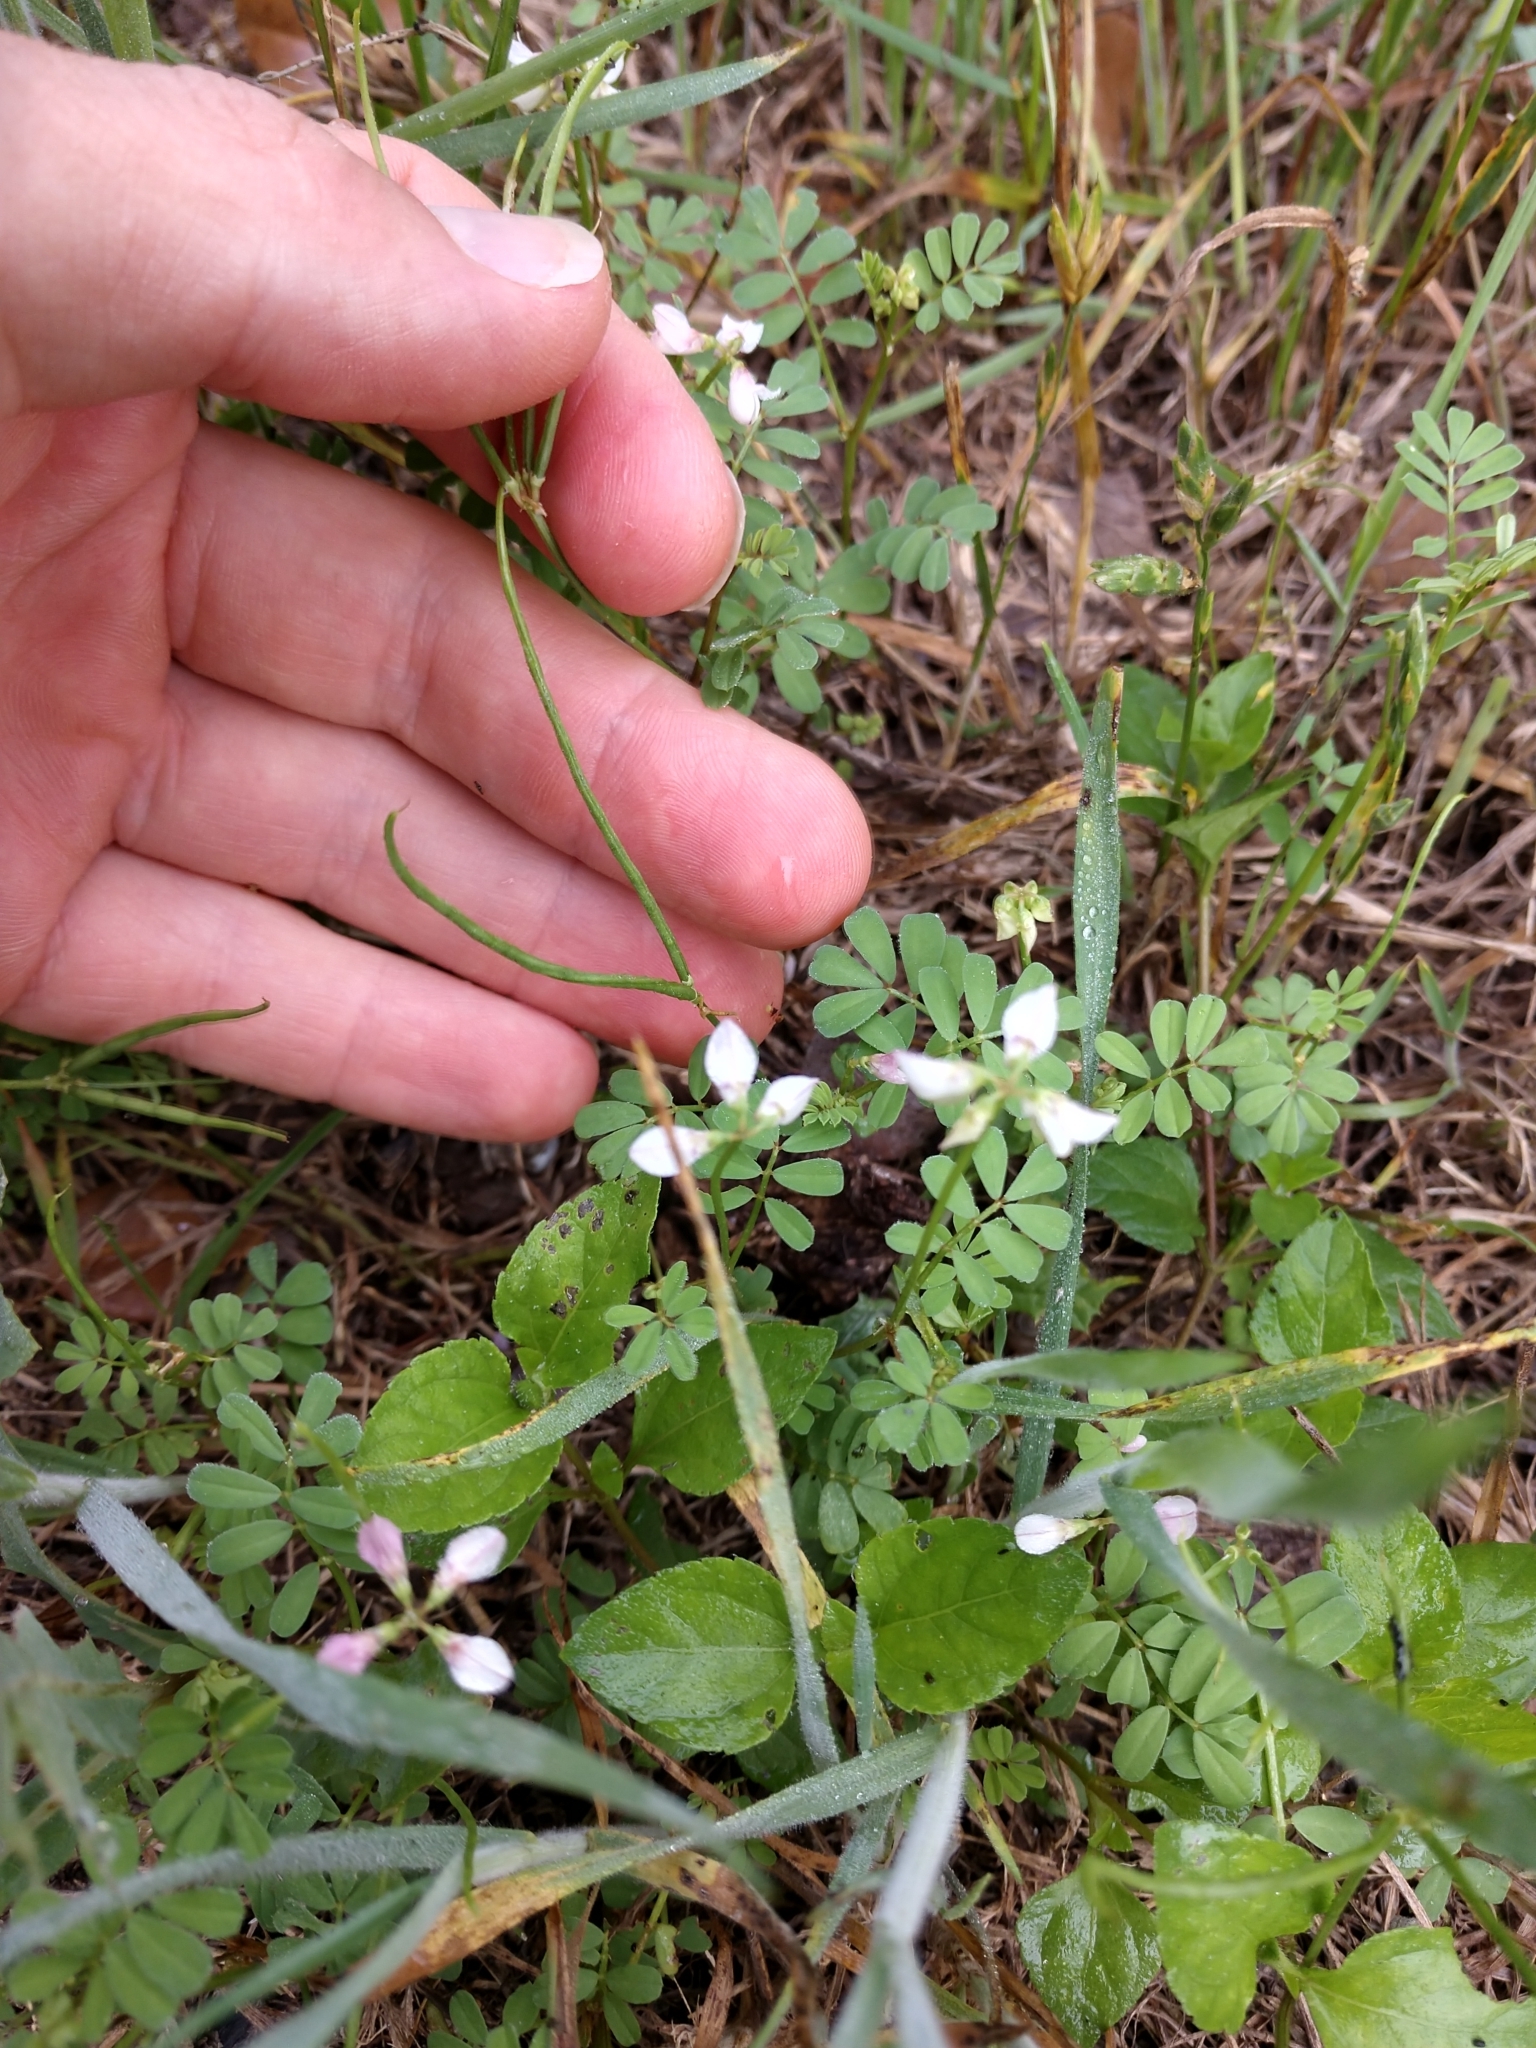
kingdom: Plantae
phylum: Tracheophyta
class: Magnoliopsida
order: Fabales
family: Fabaceae
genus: Coronilla
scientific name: Coronilla cretica
